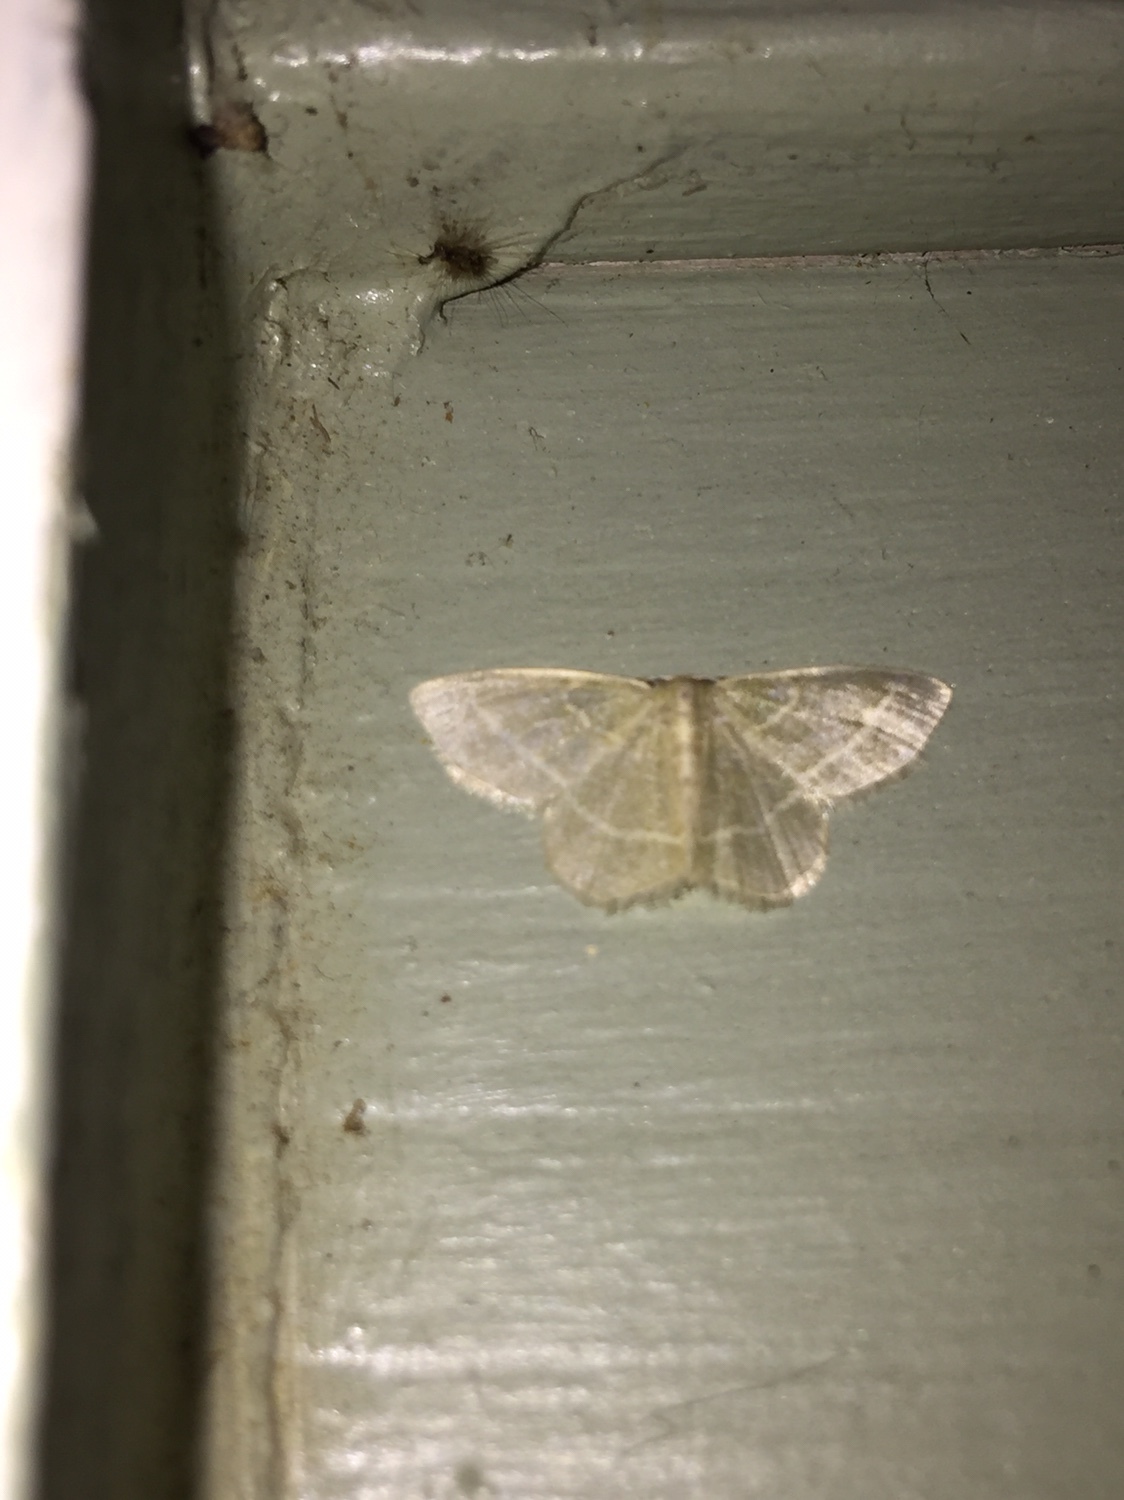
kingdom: Animalia
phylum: Arthropoda
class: Insecta
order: Lepidoptera
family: Geometridae
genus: Chlorochlamys
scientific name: Chlorochlamys chloroleucaria
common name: Blackberry looper
